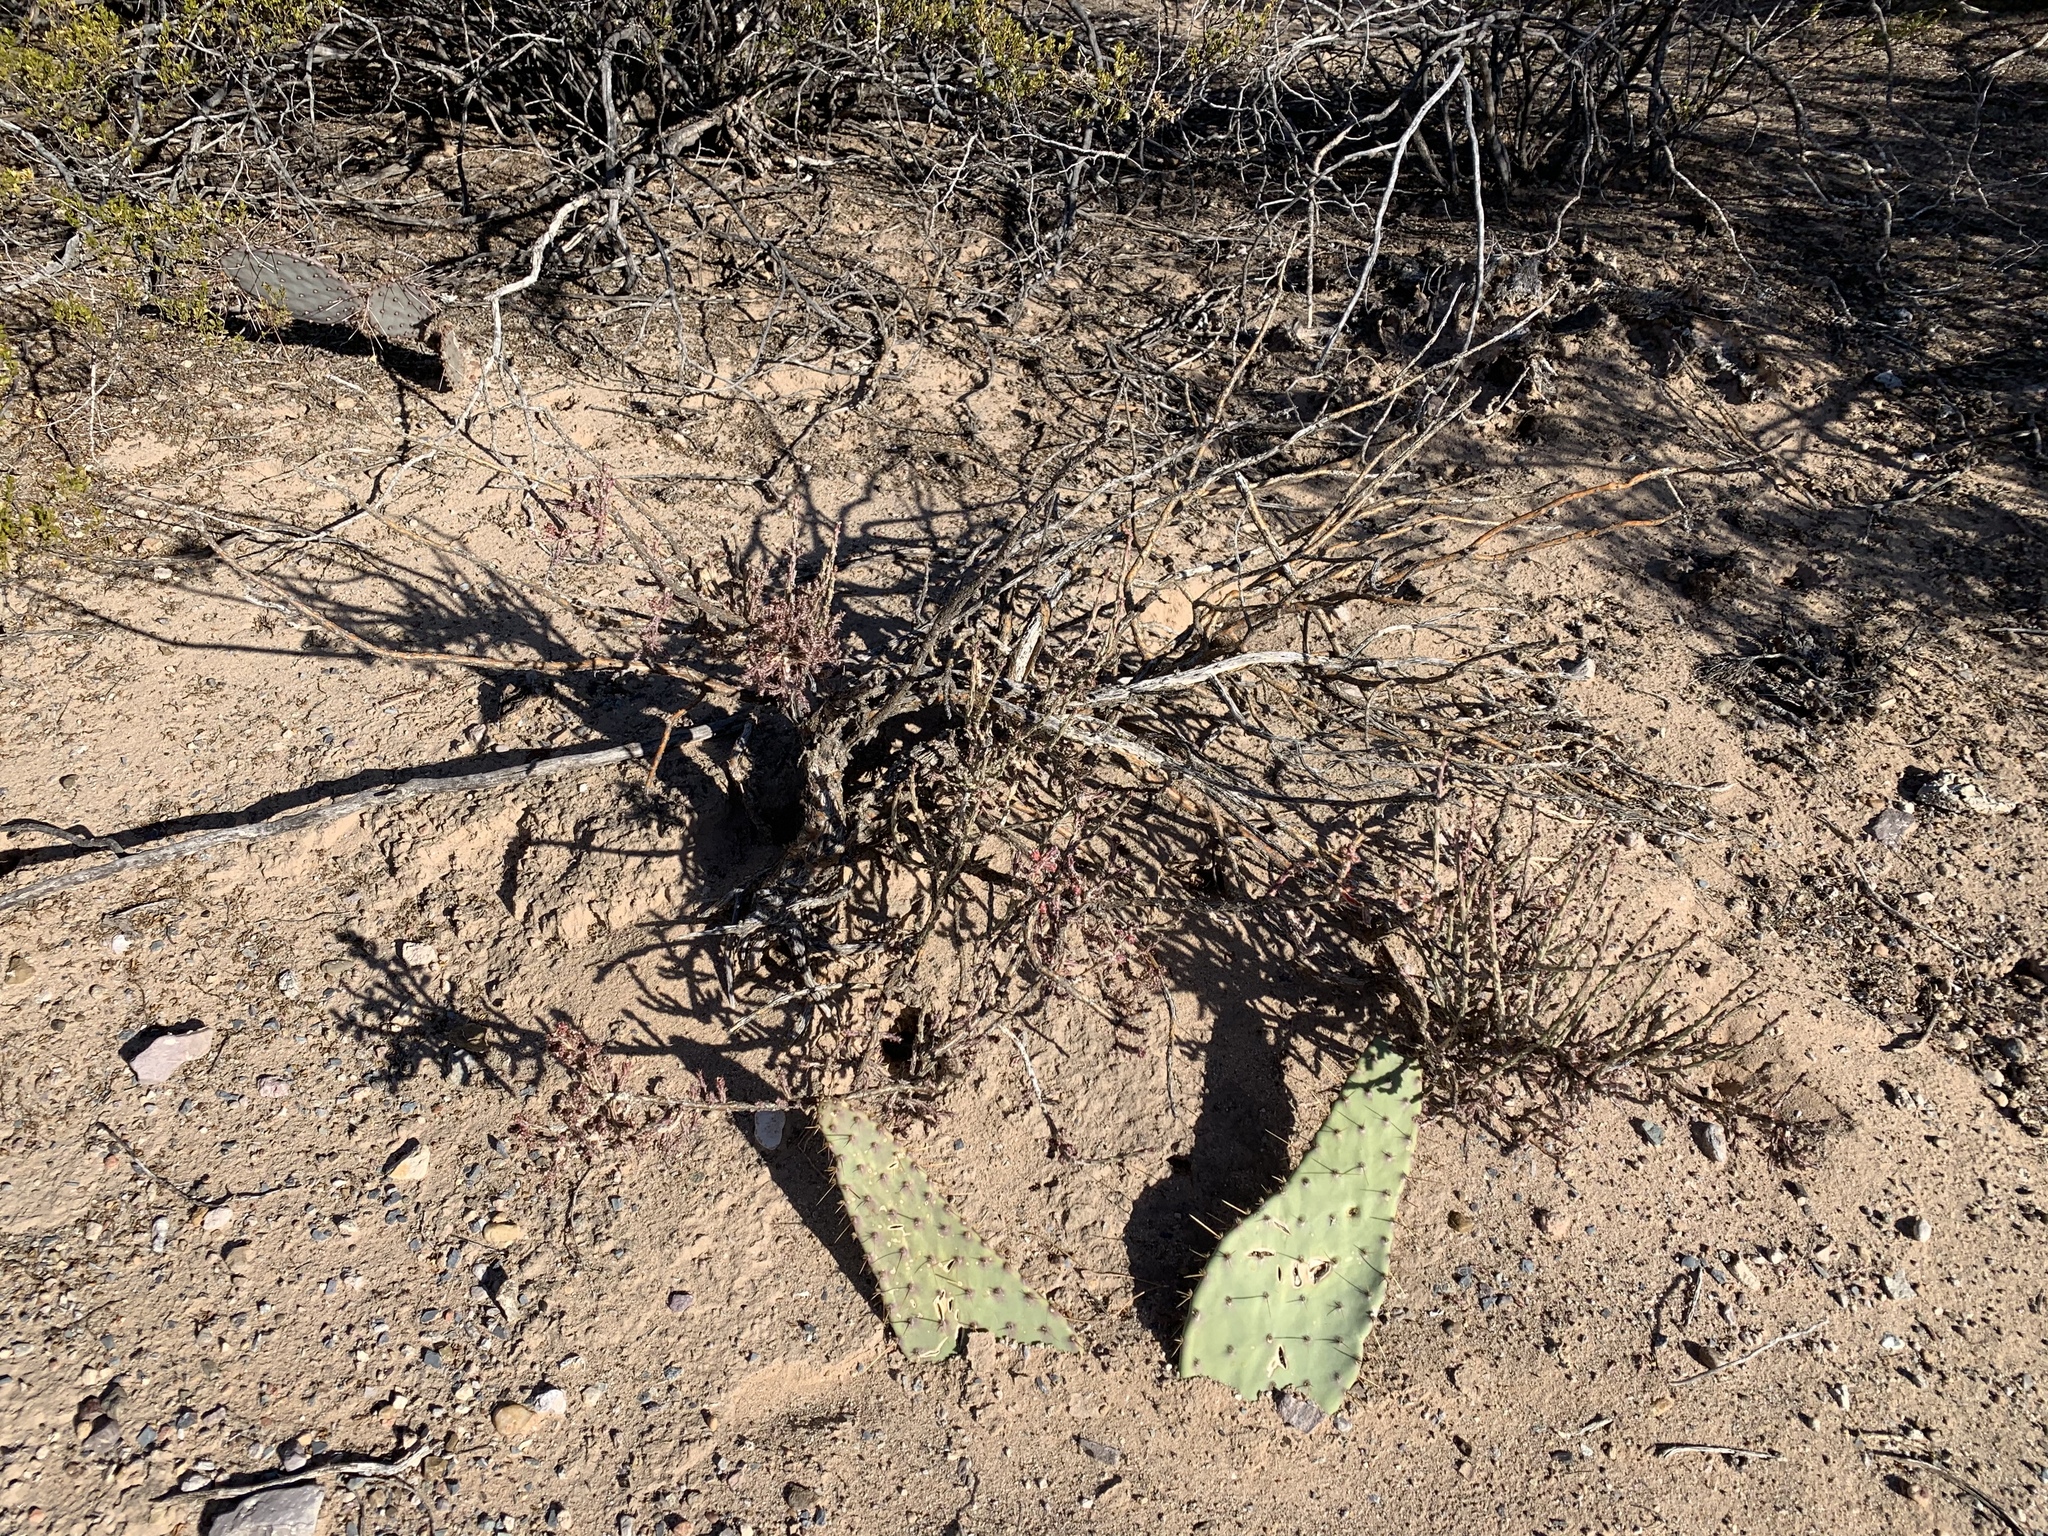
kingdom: Plantae
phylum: Tracheophyta
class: Magnoliopsida
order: Caryophyllales
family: Cactaceae
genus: Cylindropuntia
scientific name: Cylindropuntia leptocaulis
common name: Christmas cactus
